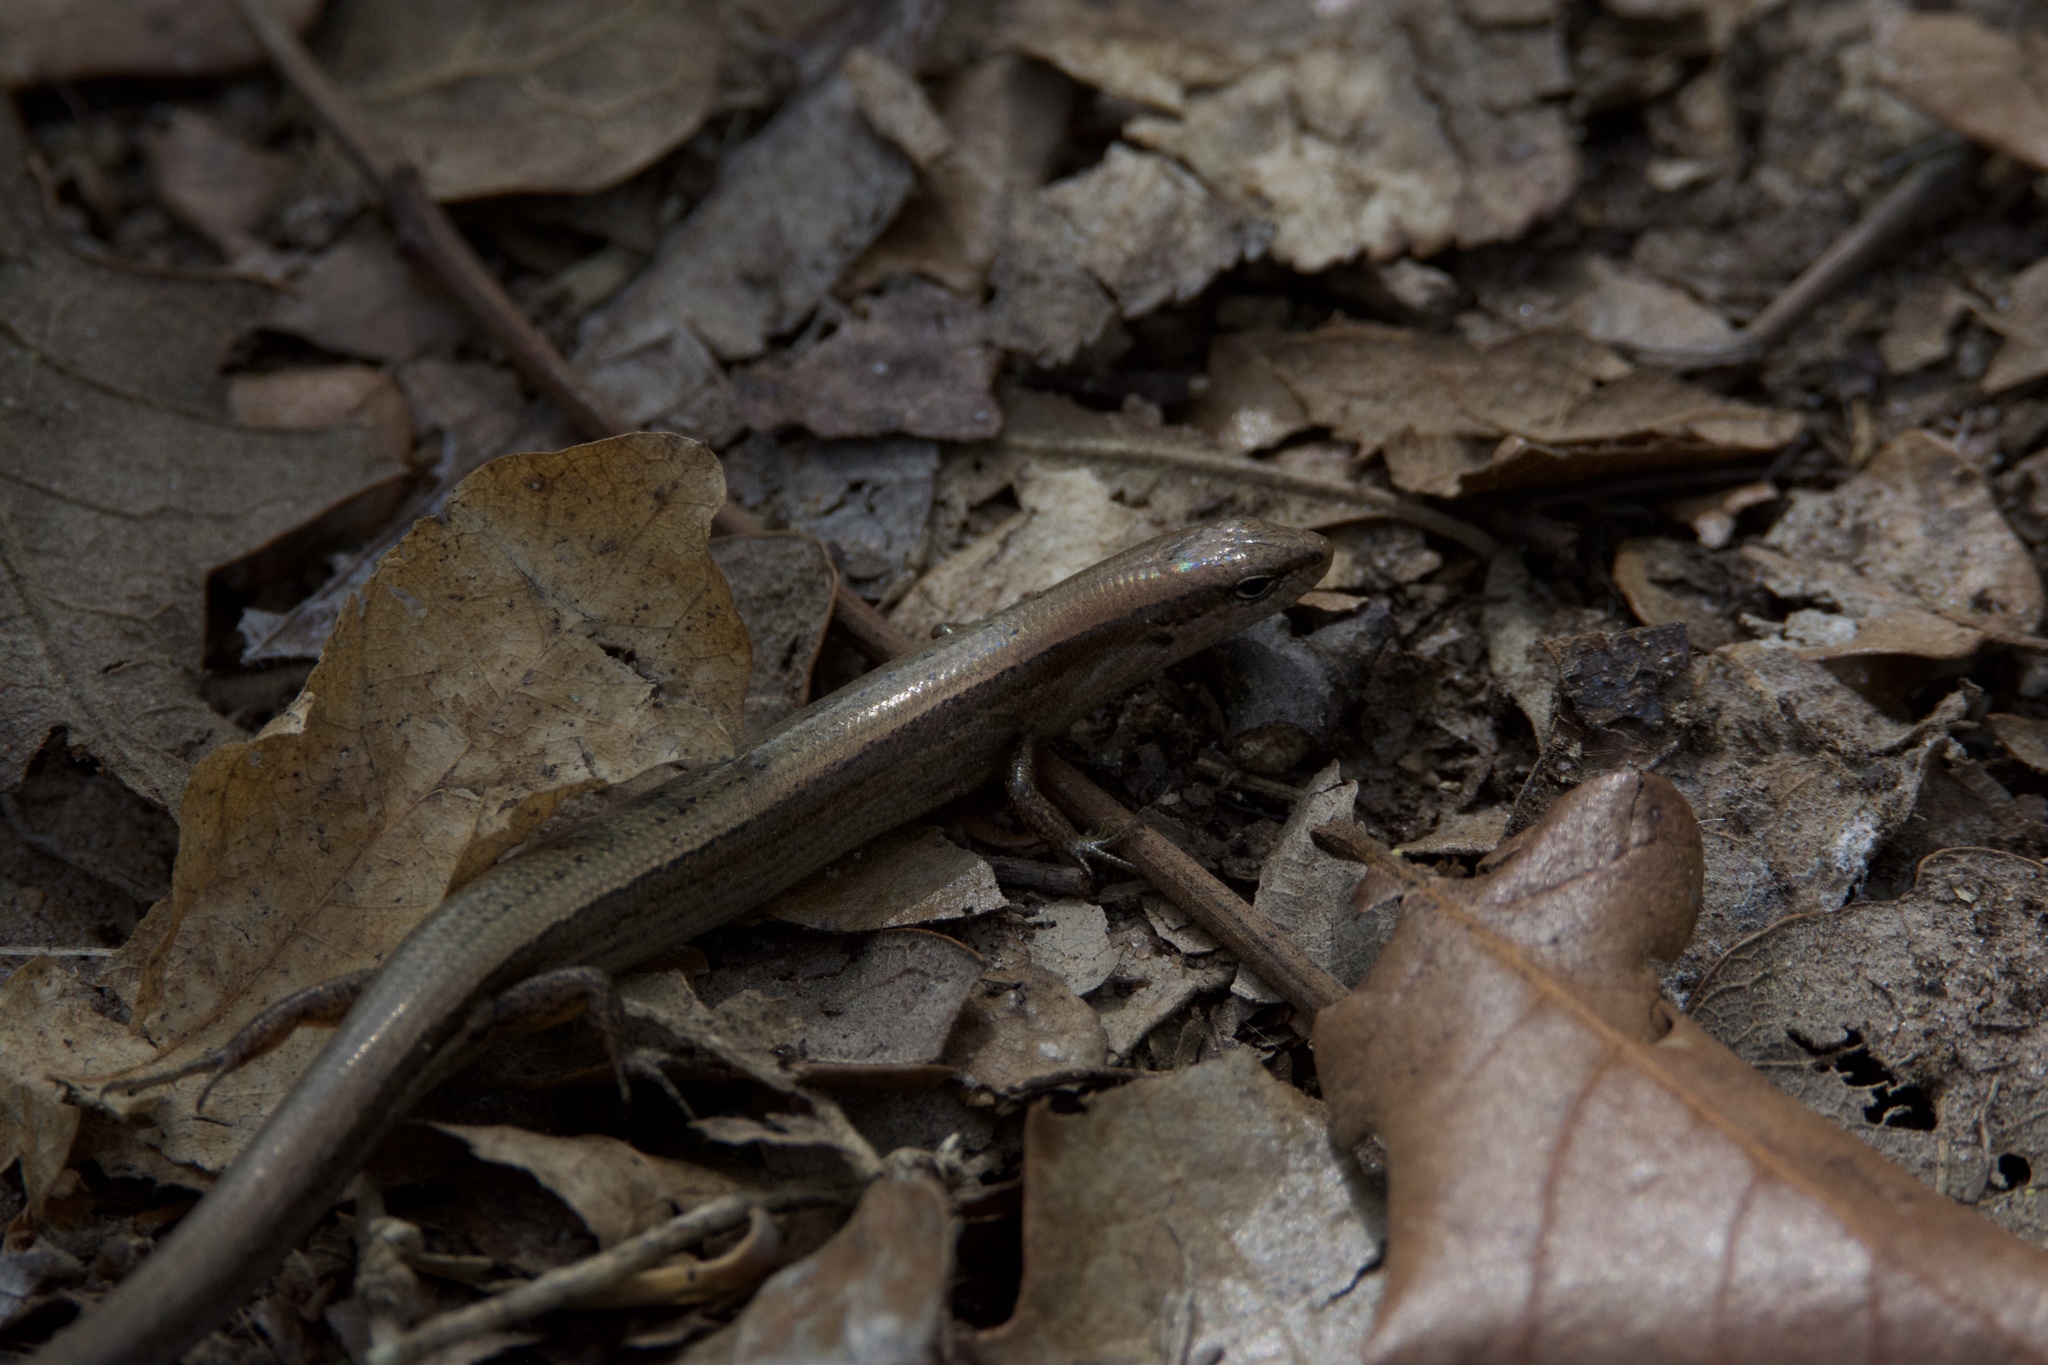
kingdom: Animalia
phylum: Chordata
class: Squamata
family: Scincidae
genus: Scincella
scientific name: Scincella lateralis
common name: Ground skink
